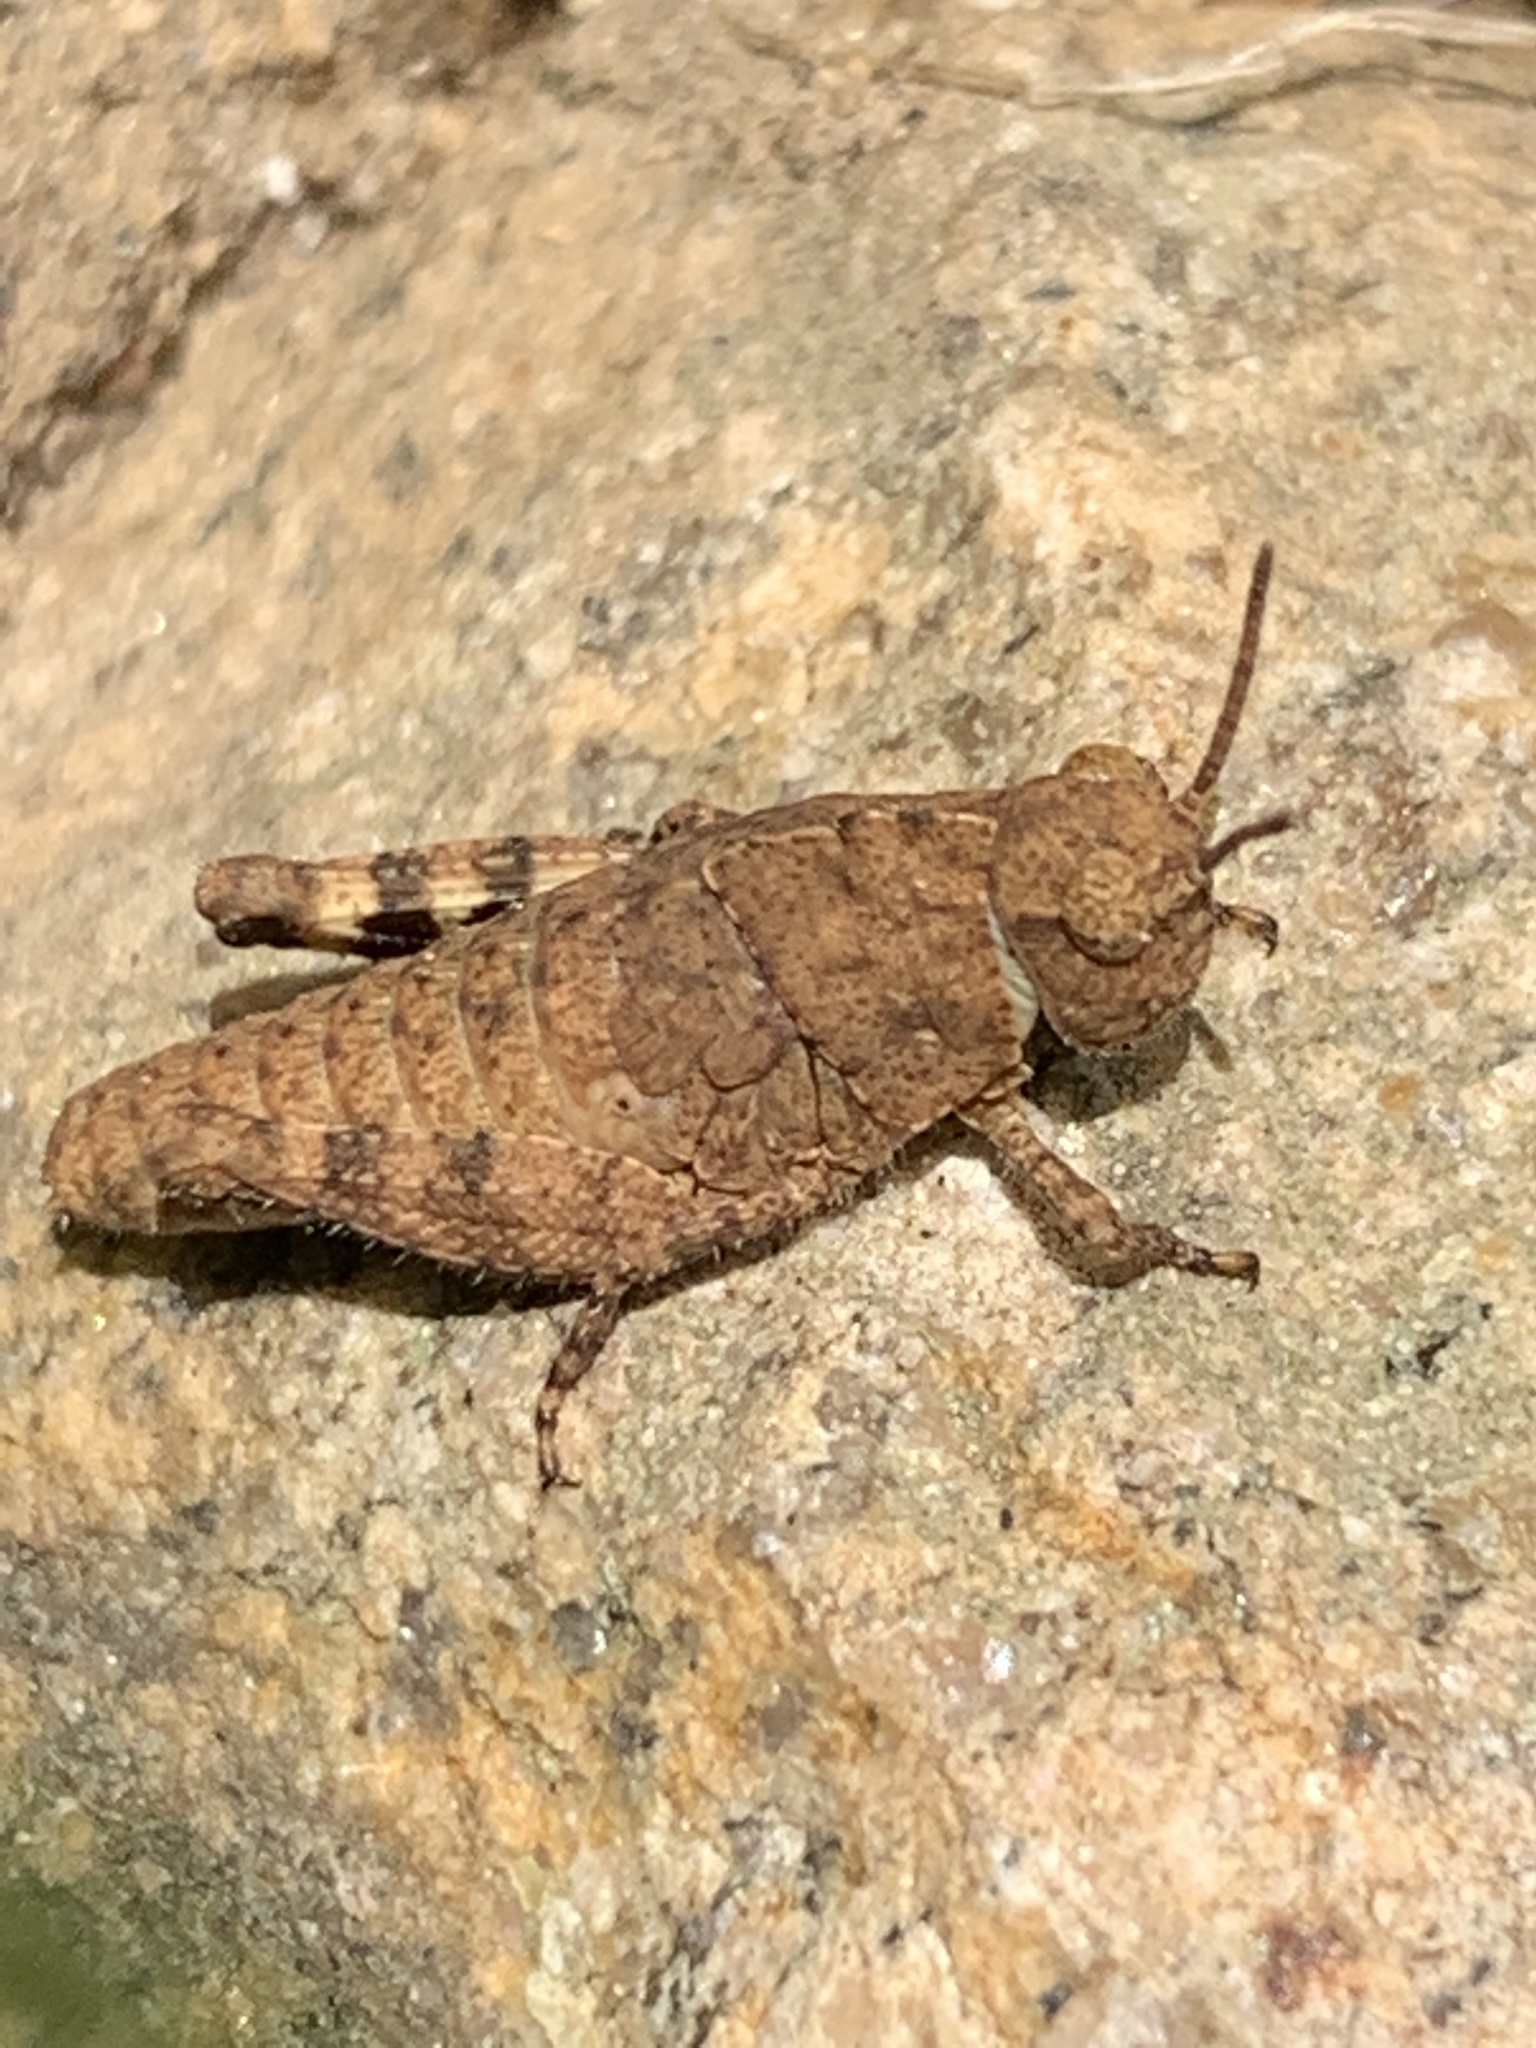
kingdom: Animalia
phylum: Arthropoda
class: Insecta
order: Orthoptera
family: Acrididae
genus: Dissosteira
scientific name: Dissosteira carolina
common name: Carolina grasshopper
